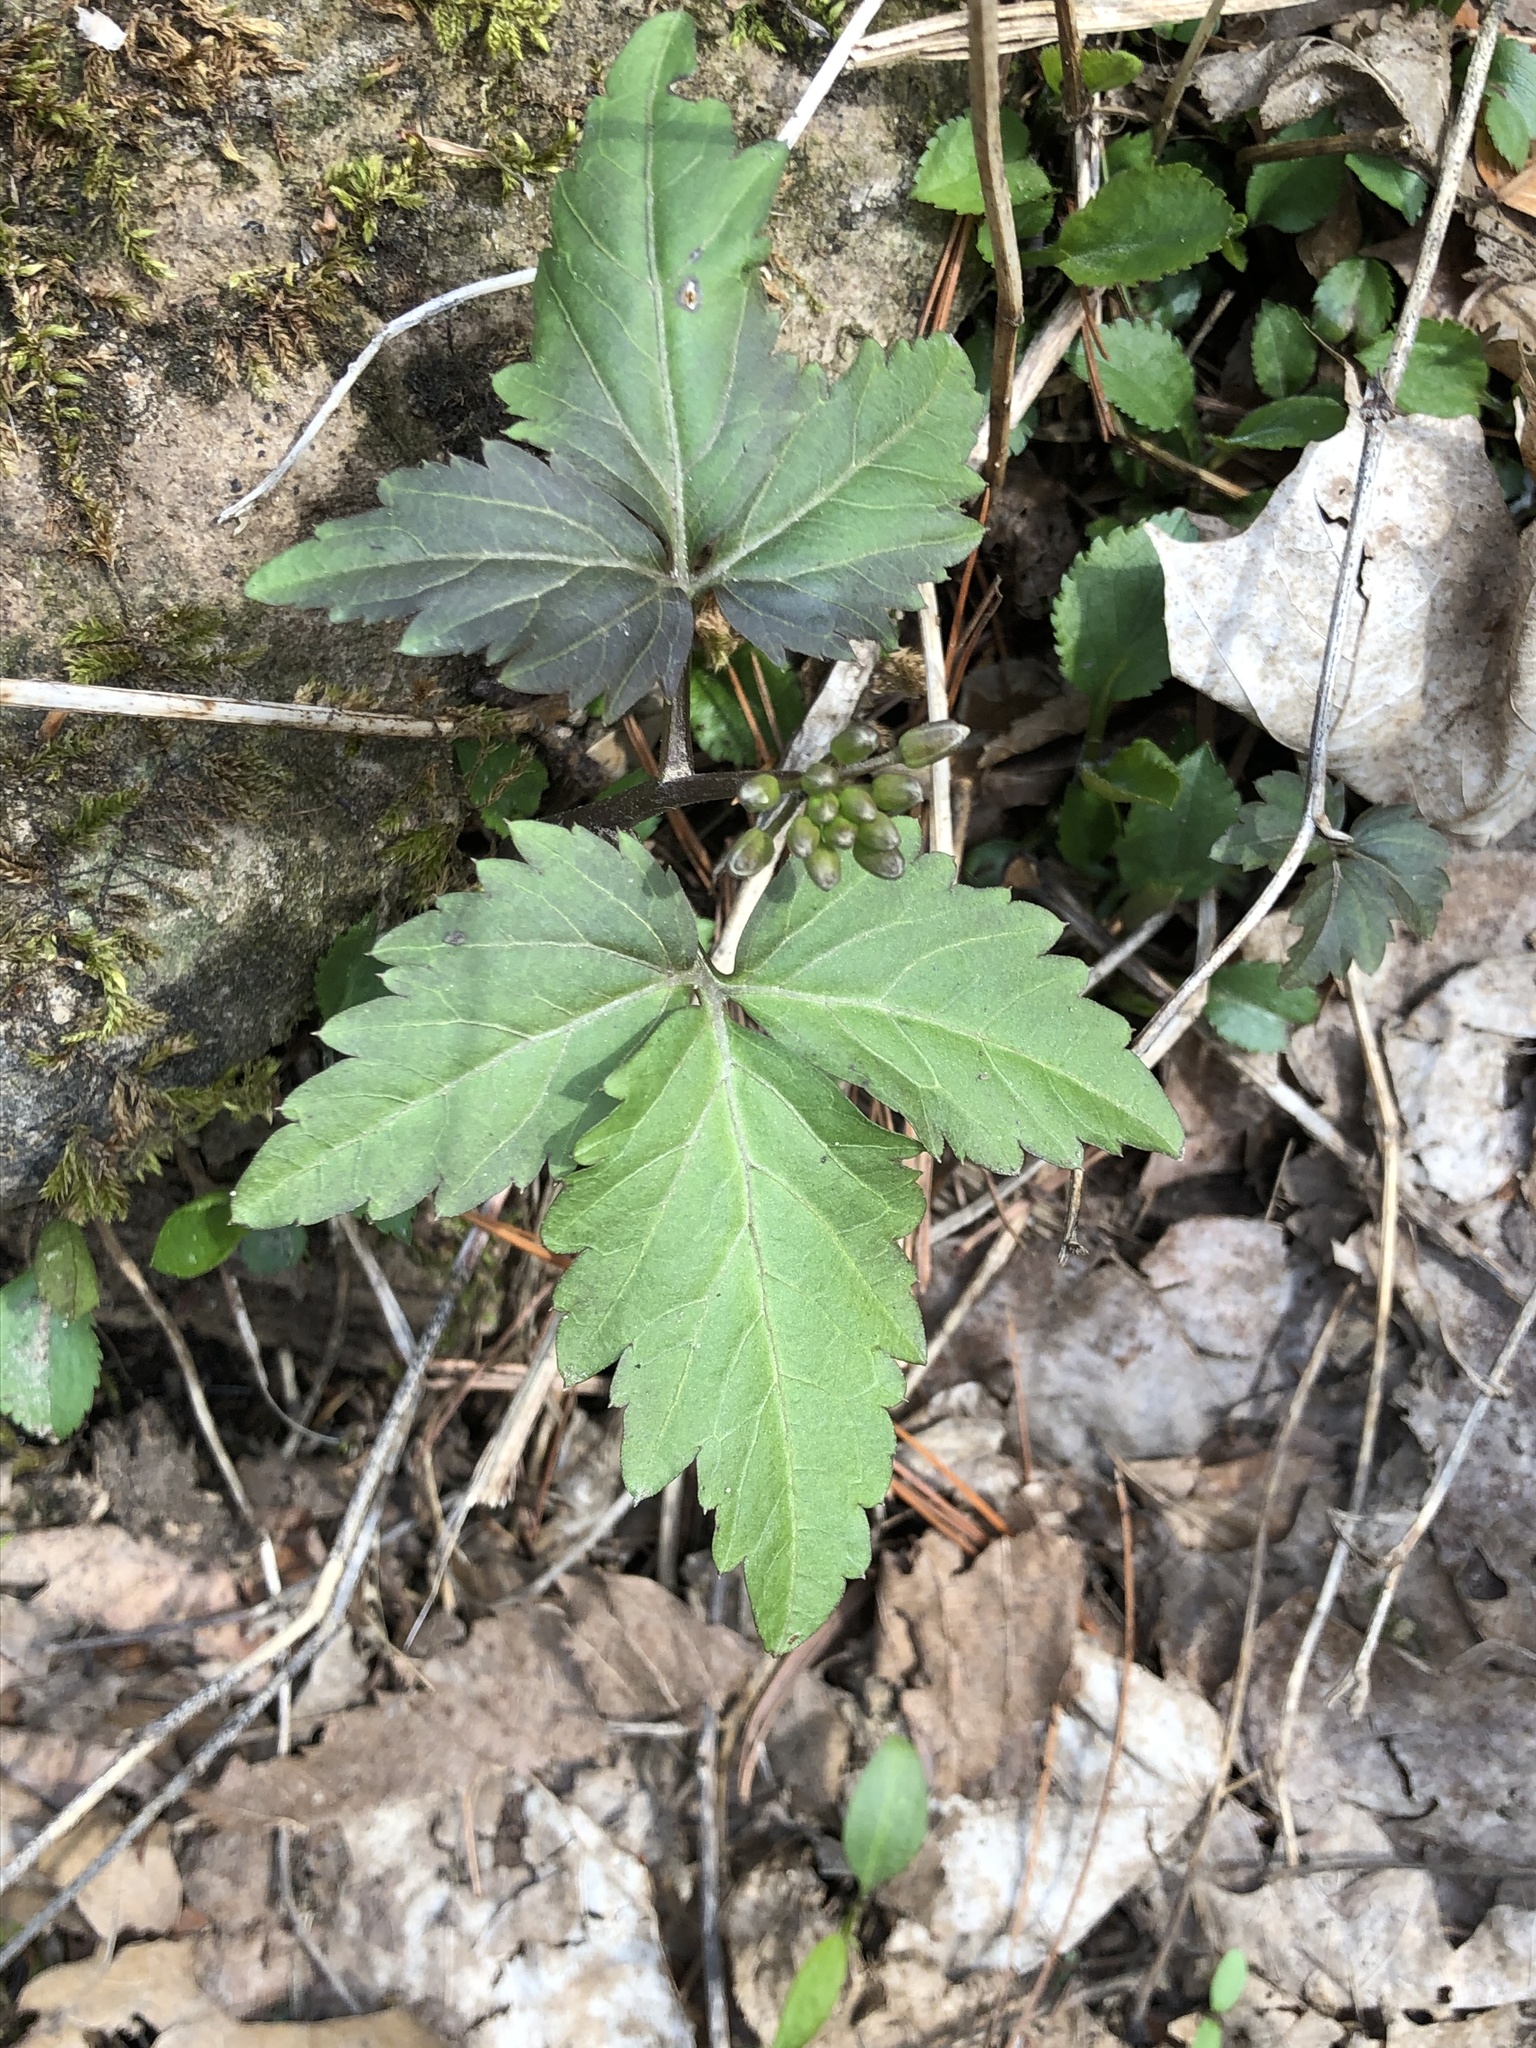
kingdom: Plantae
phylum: Tracheophyta
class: Magnoliopsida
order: Brassicales
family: Brassicaceae
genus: Cardamine
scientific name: Cardamine diphylla
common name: Broad-leaved toothwort
